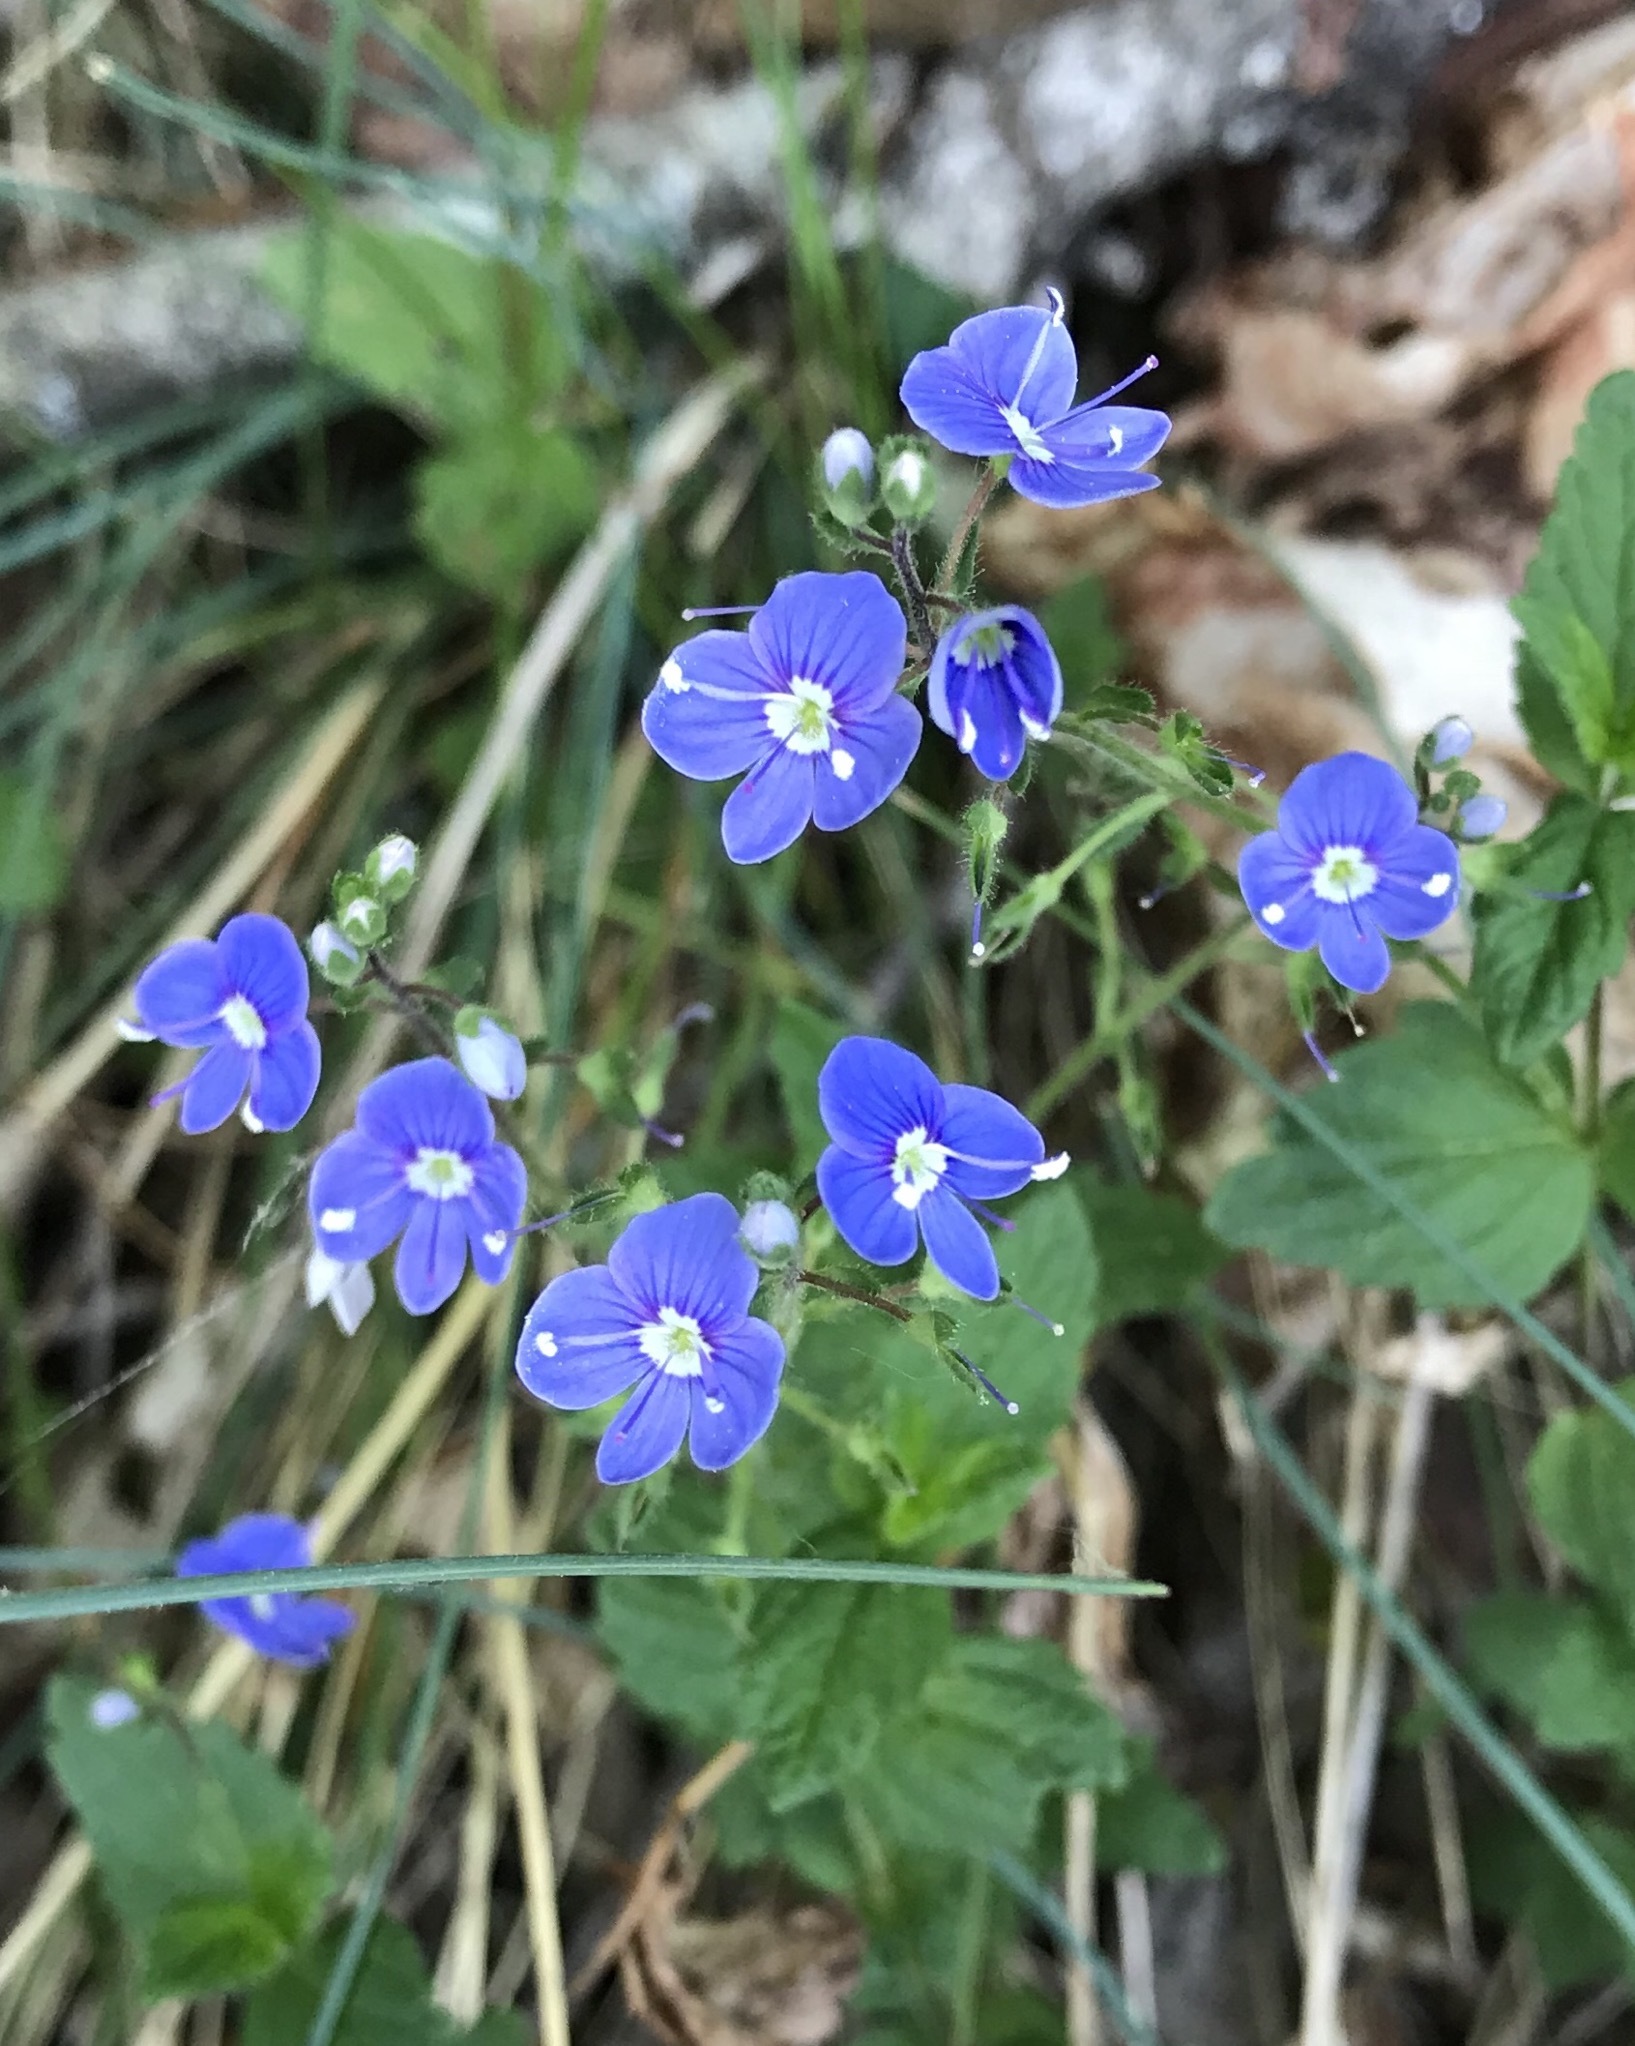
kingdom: Plantae
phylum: Tracheophyta
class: Magnoliopsida
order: Lamiales
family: Plantaginaceae
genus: Veronica
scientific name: Veronica chamaedrys
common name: Germander speedwell
